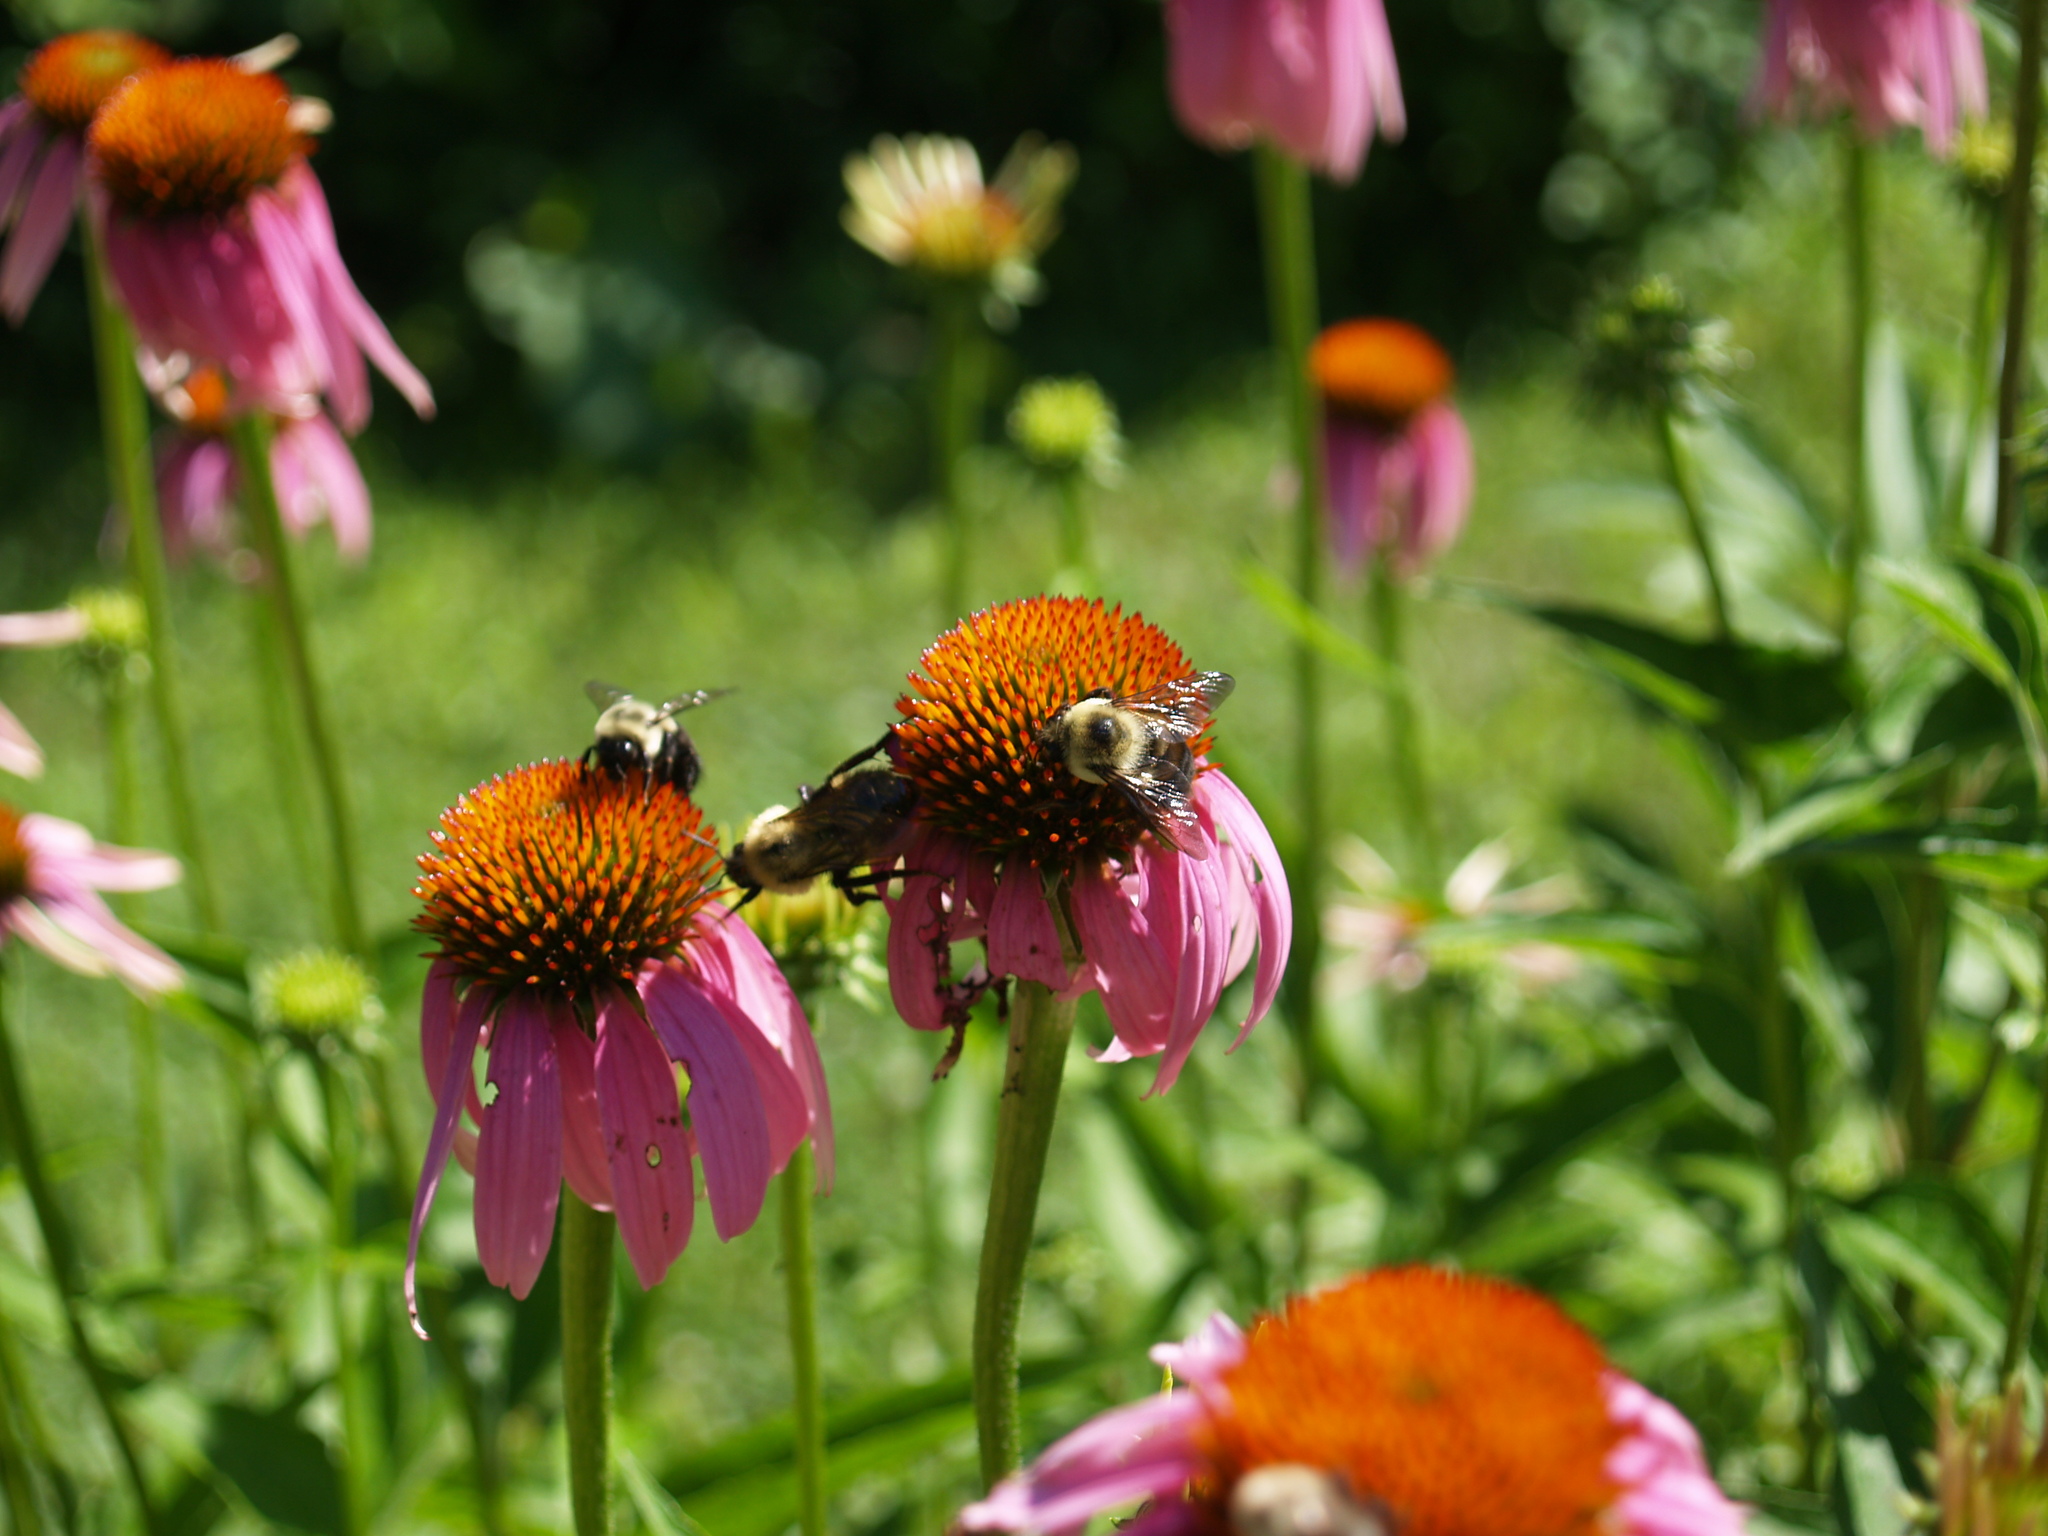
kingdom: Animalia
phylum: Arthropoda
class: Insecta
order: Hymenoptera
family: Apidae
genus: Bombus
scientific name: Bombus citrinus
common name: Lemon cuckoo bumble bee
